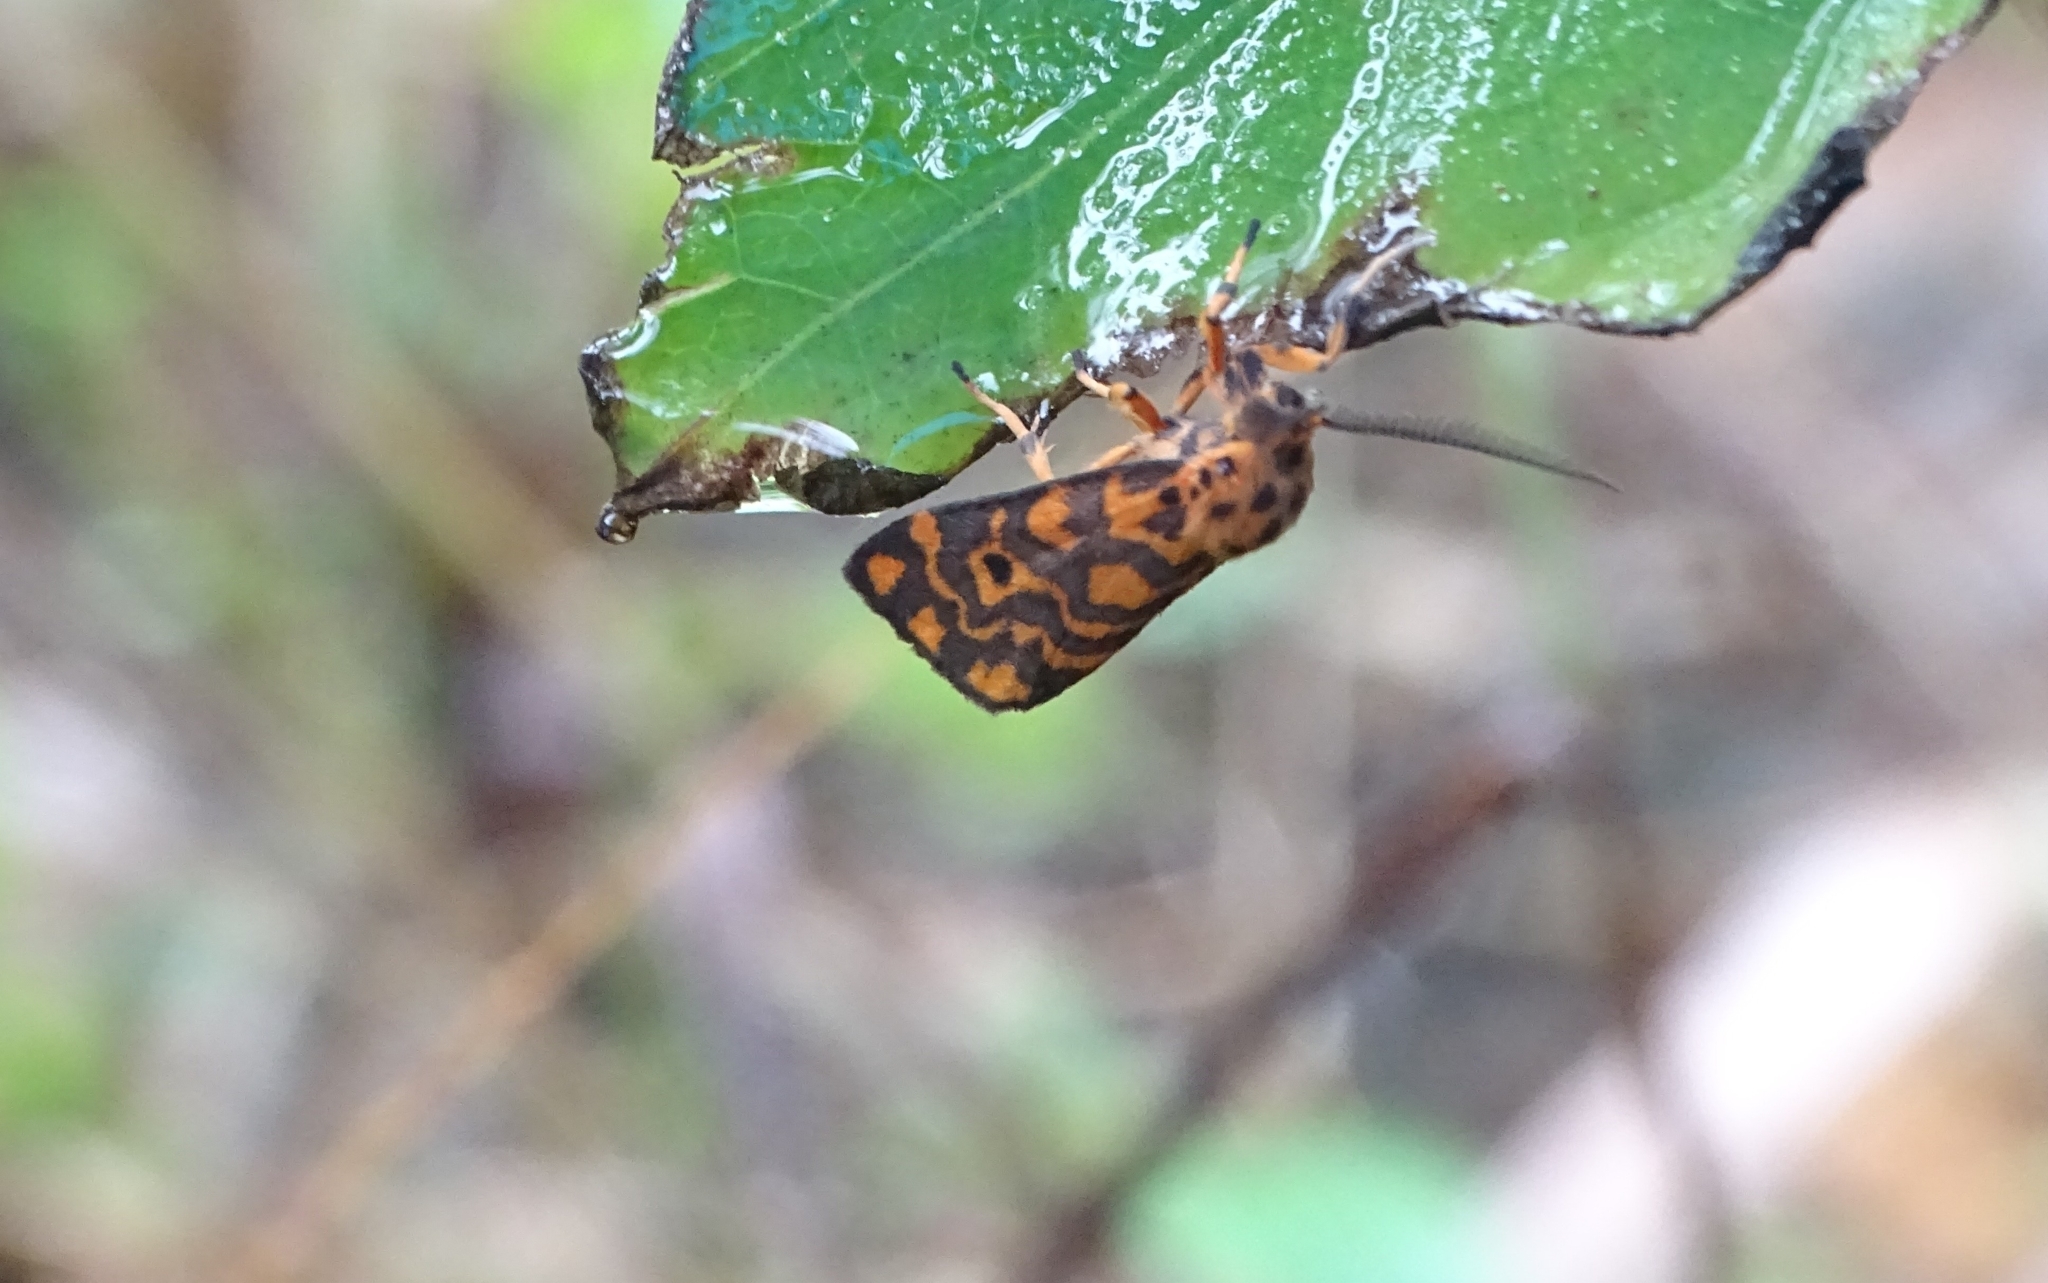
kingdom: Animalia
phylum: Arthropoda
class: Insecta
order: Lepidoptera
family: Erebidae
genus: Nepita
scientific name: Nepita conferta
